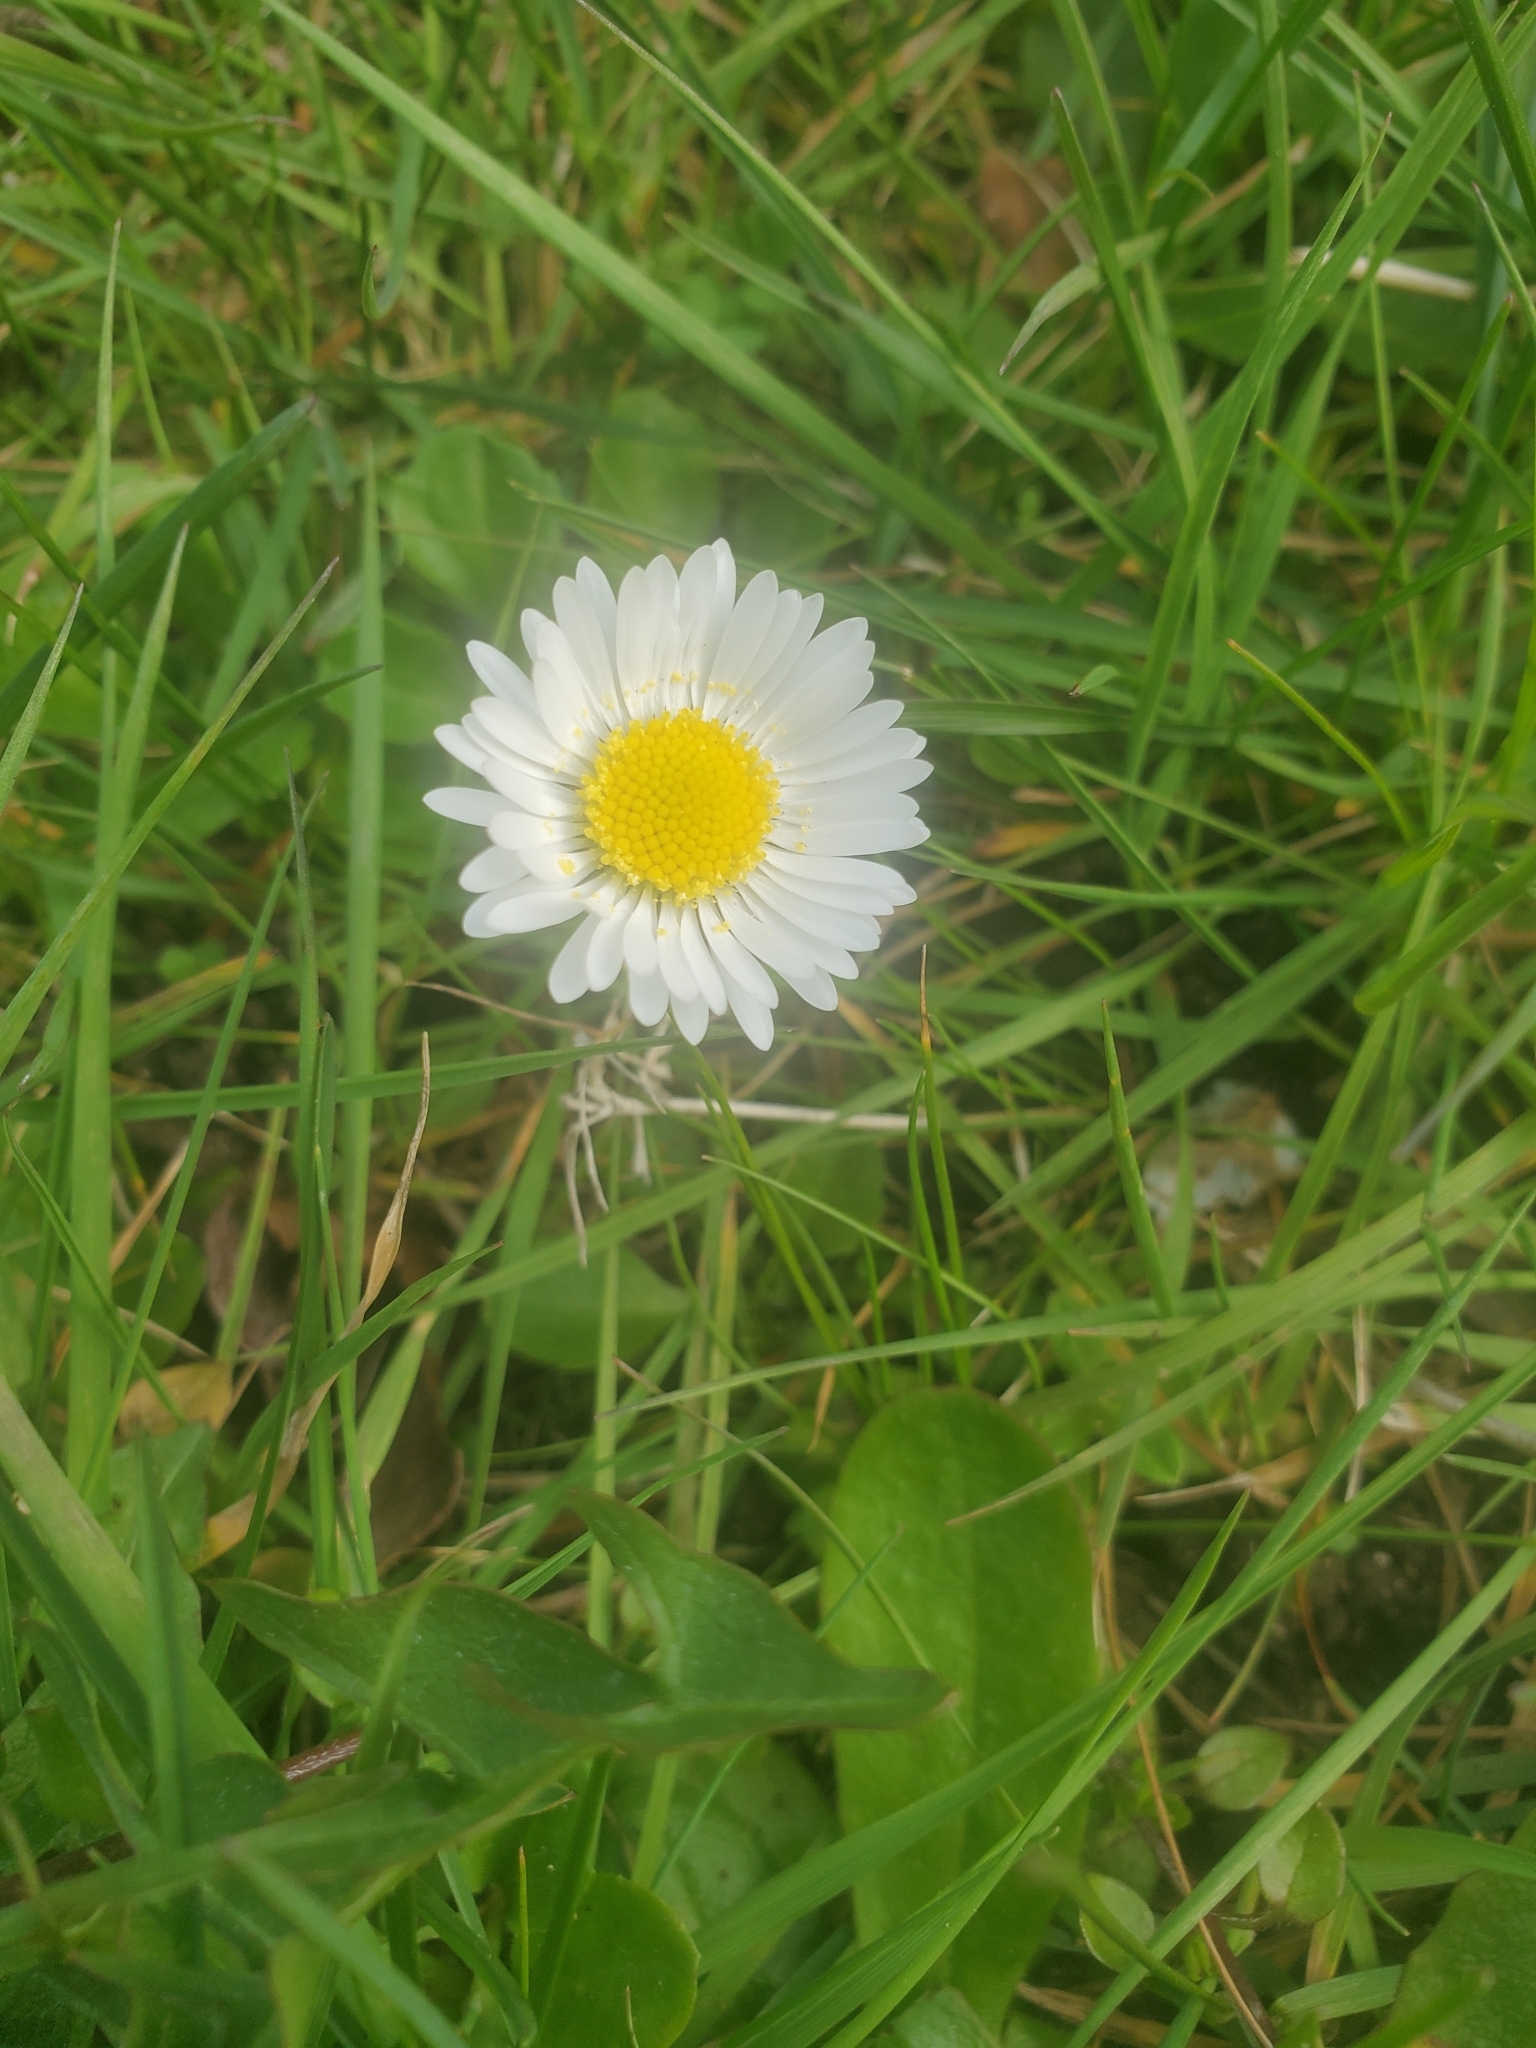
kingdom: Plantae
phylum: Tracheophyta
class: Magnoliopsida
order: Asterales
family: Asteraceae
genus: Bellis
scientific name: Bellis perennis
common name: Lawndaisy
